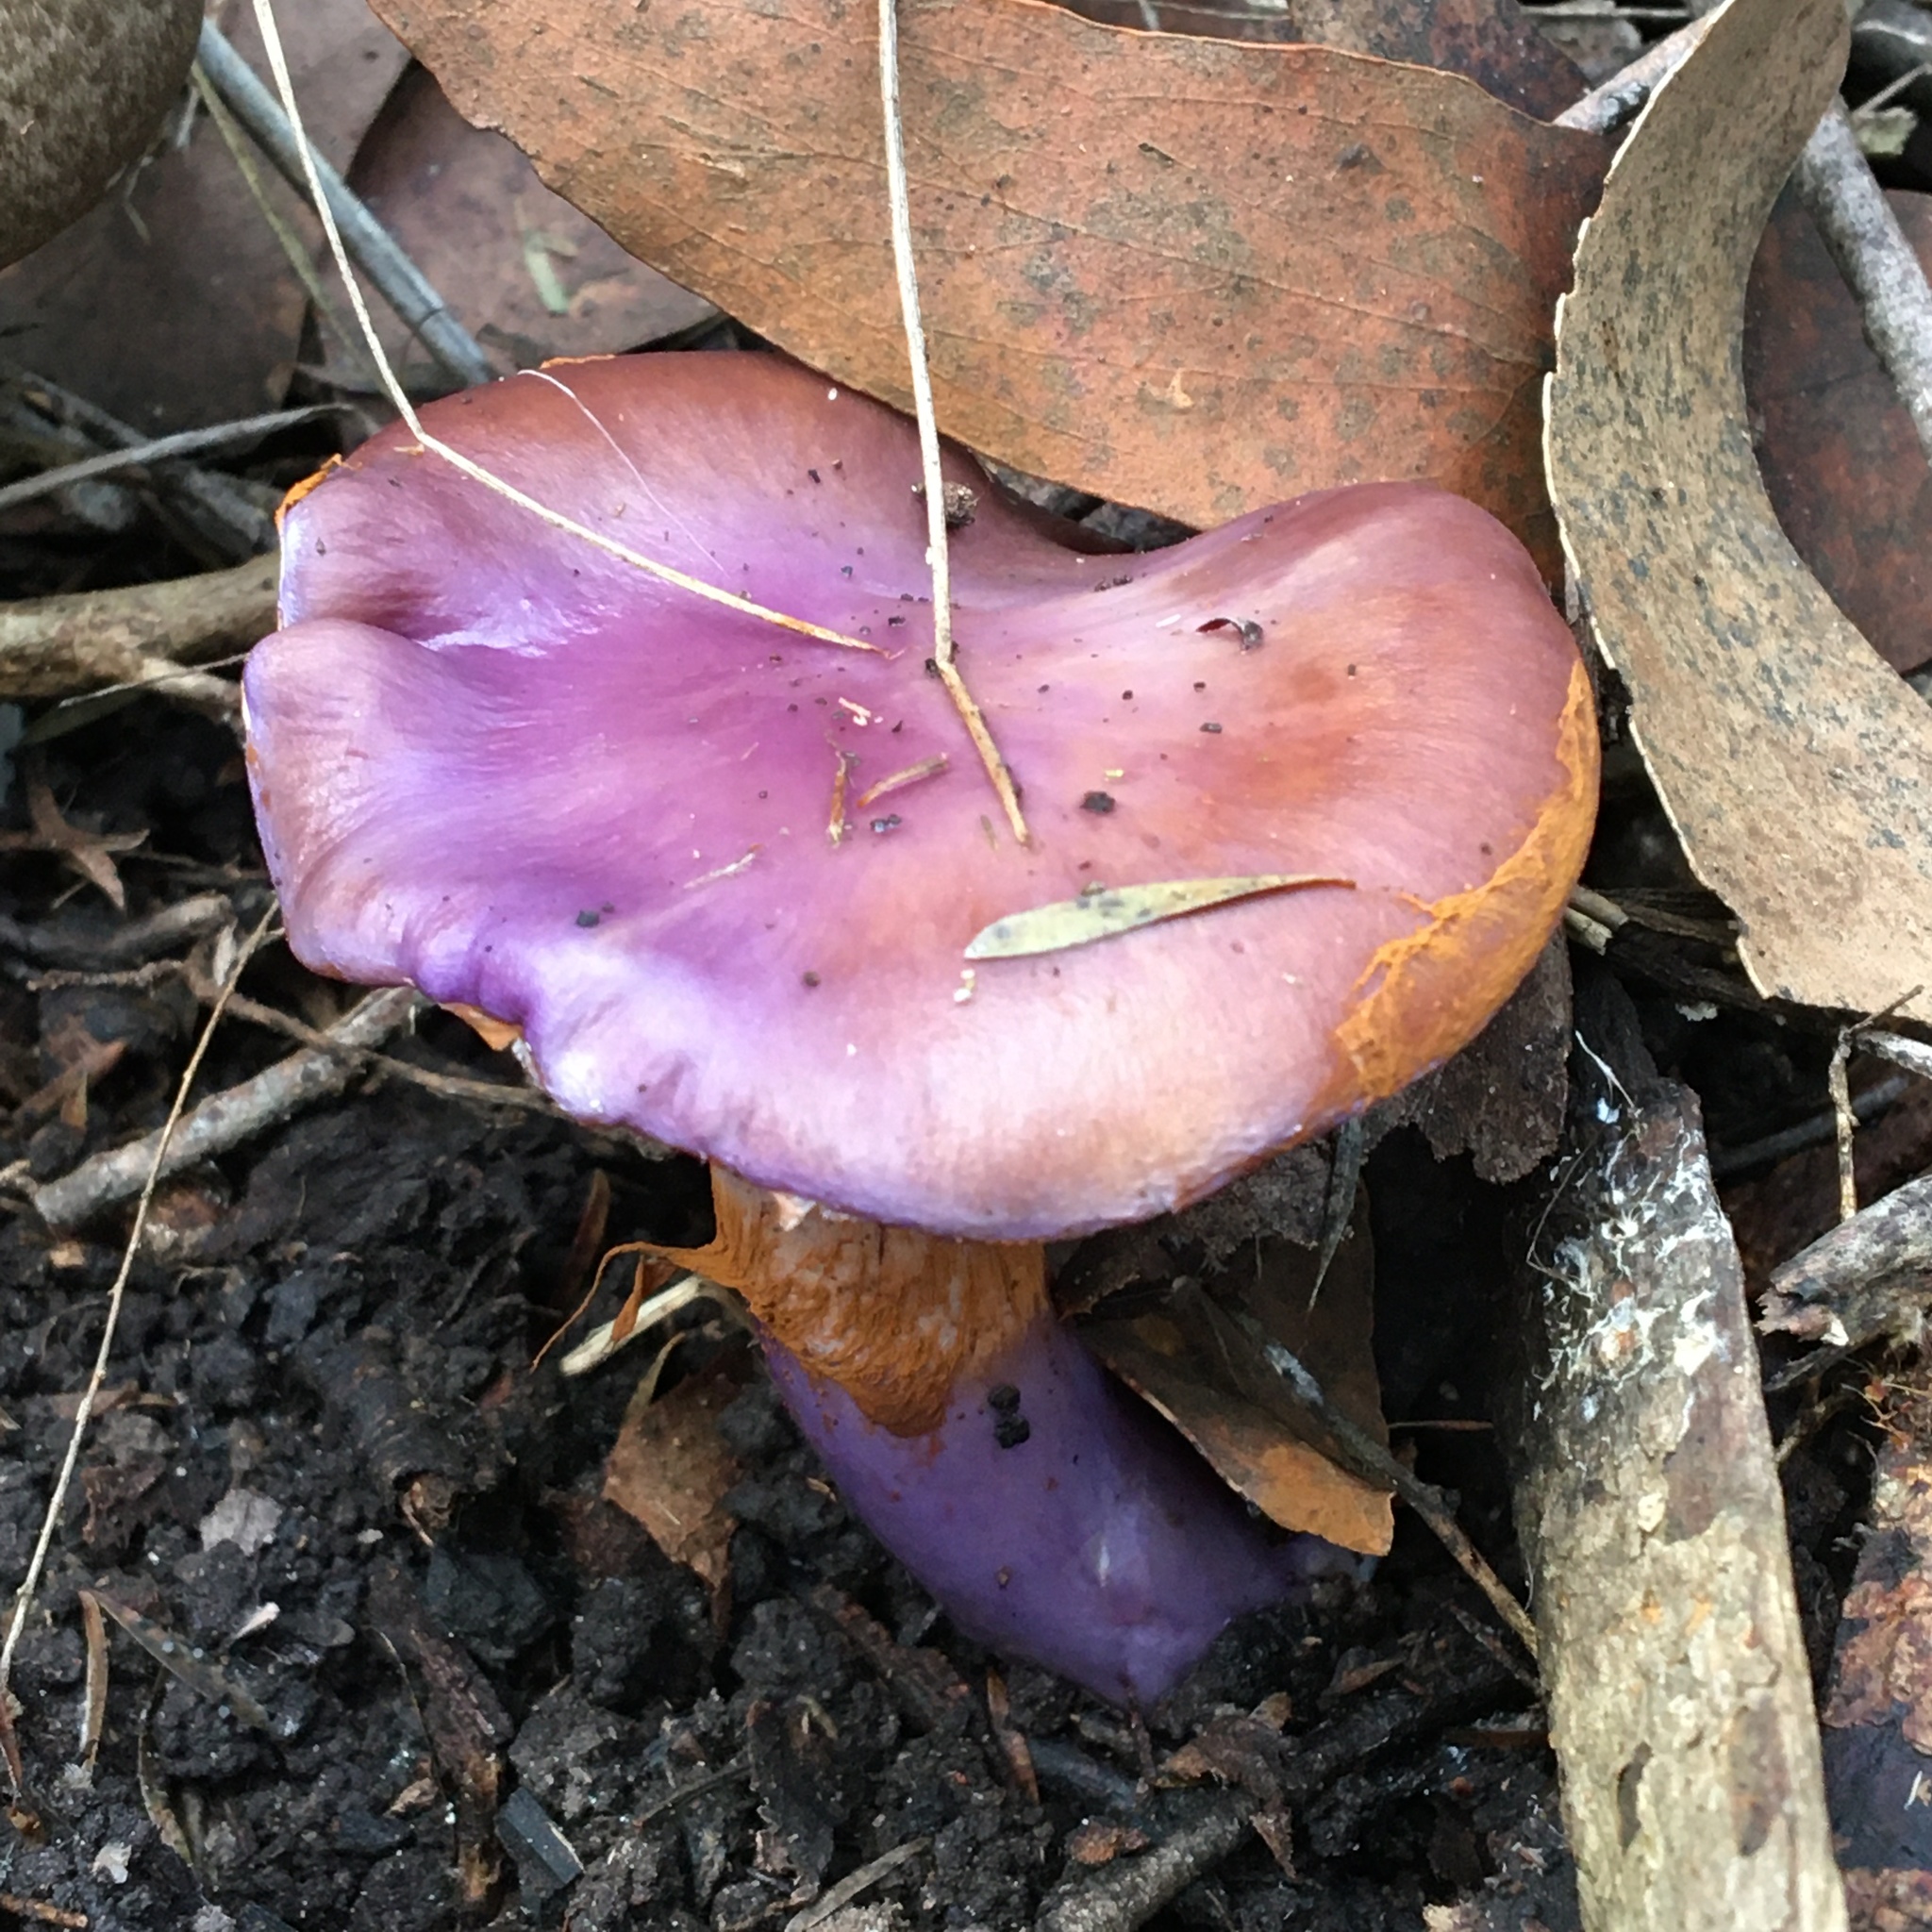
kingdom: Fungi
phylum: Basidiomycota
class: Agaricomycetes
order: Agaricales
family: Cortinariaceae
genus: Cortinarius
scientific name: Cortinarius archeri
